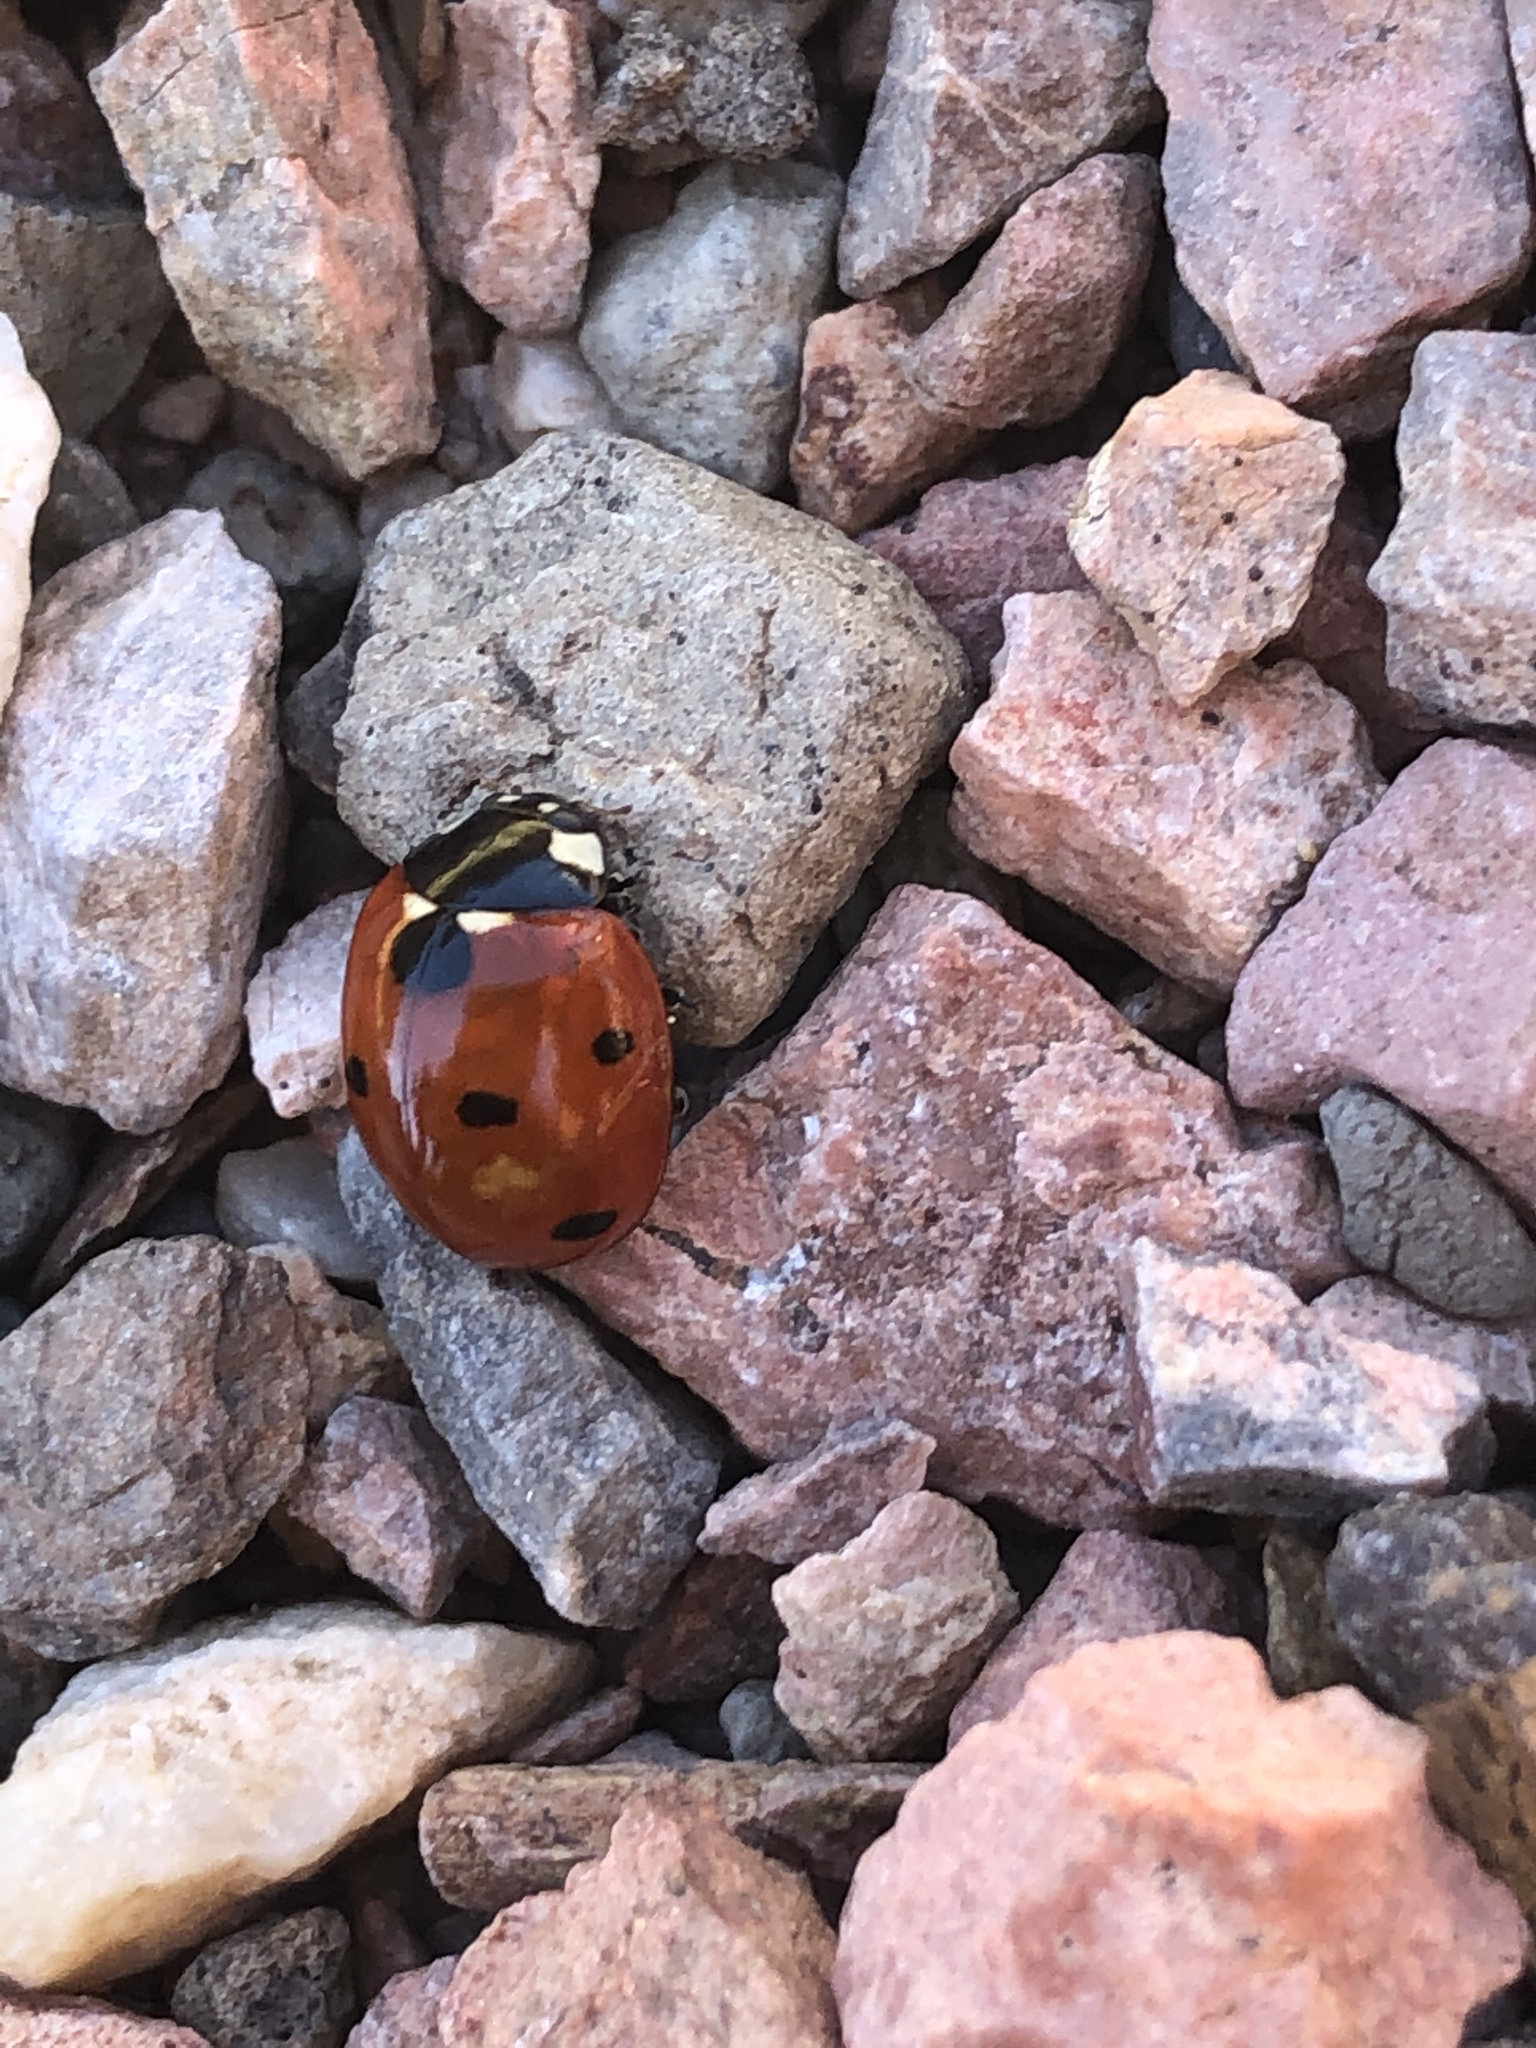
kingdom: Animalia
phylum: Arthropoda
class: Insecta
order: Coleoptera
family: Coccinellidae
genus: Coccinella
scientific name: Coccinella septempunctata
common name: Sevenspotted lady beetle
